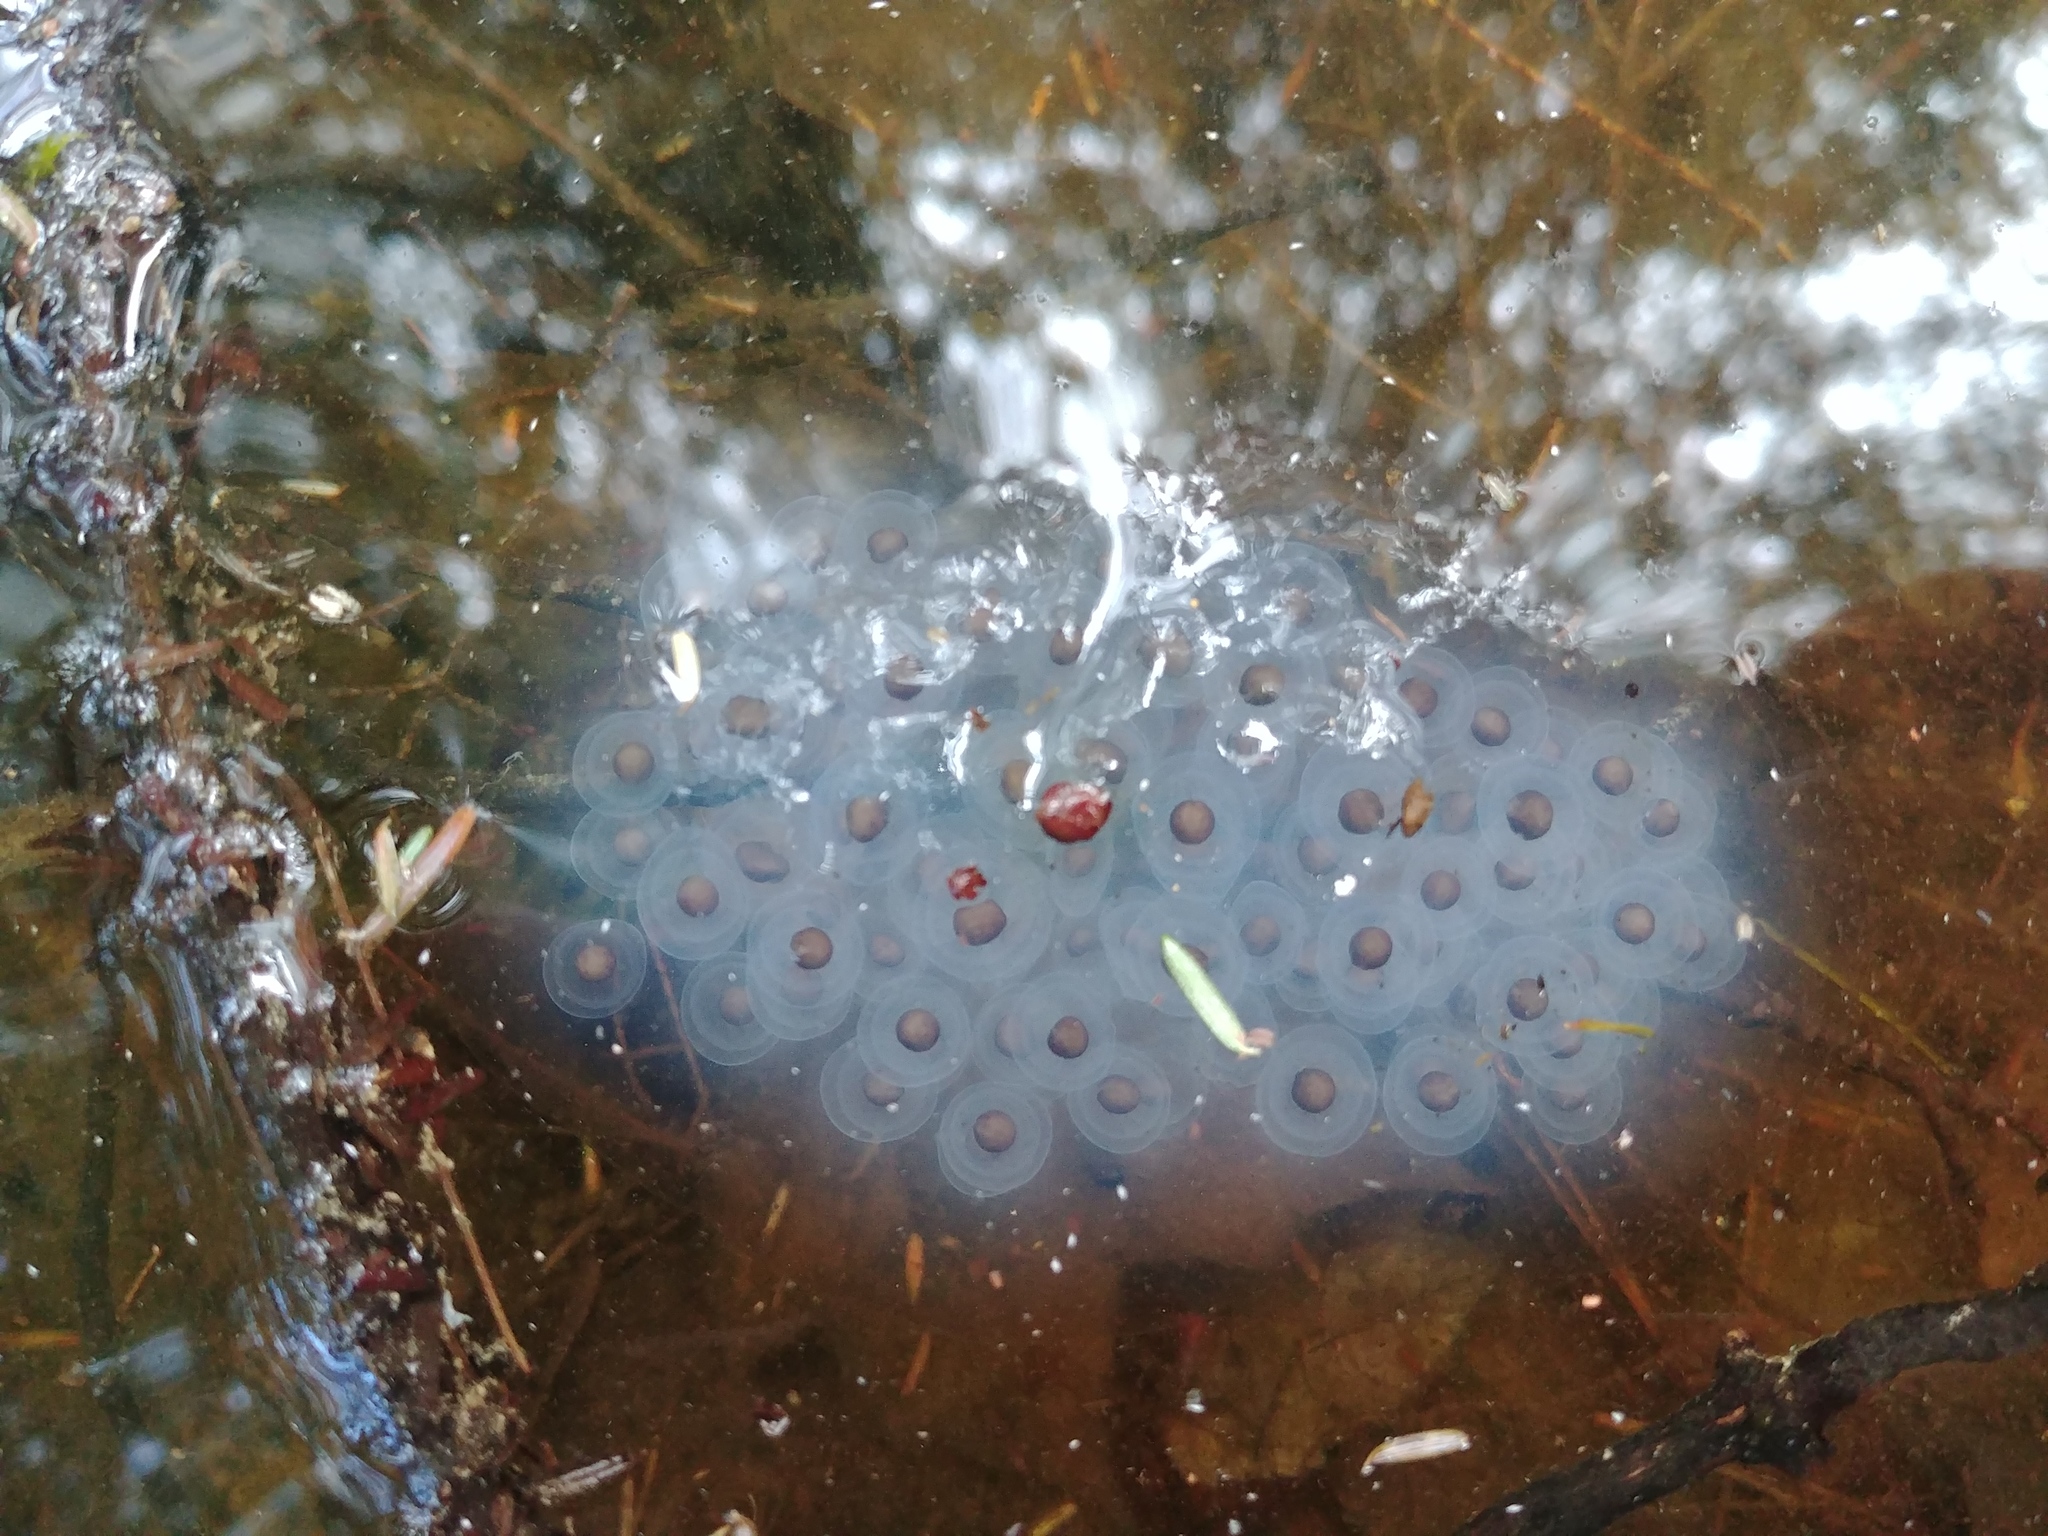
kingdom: Animalia
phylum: Chordata
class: Amphibia
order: Caudata
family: Ambystomatidae
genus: Ambystoma
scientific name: Ambystoma maculatum
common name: Spotted salamander
